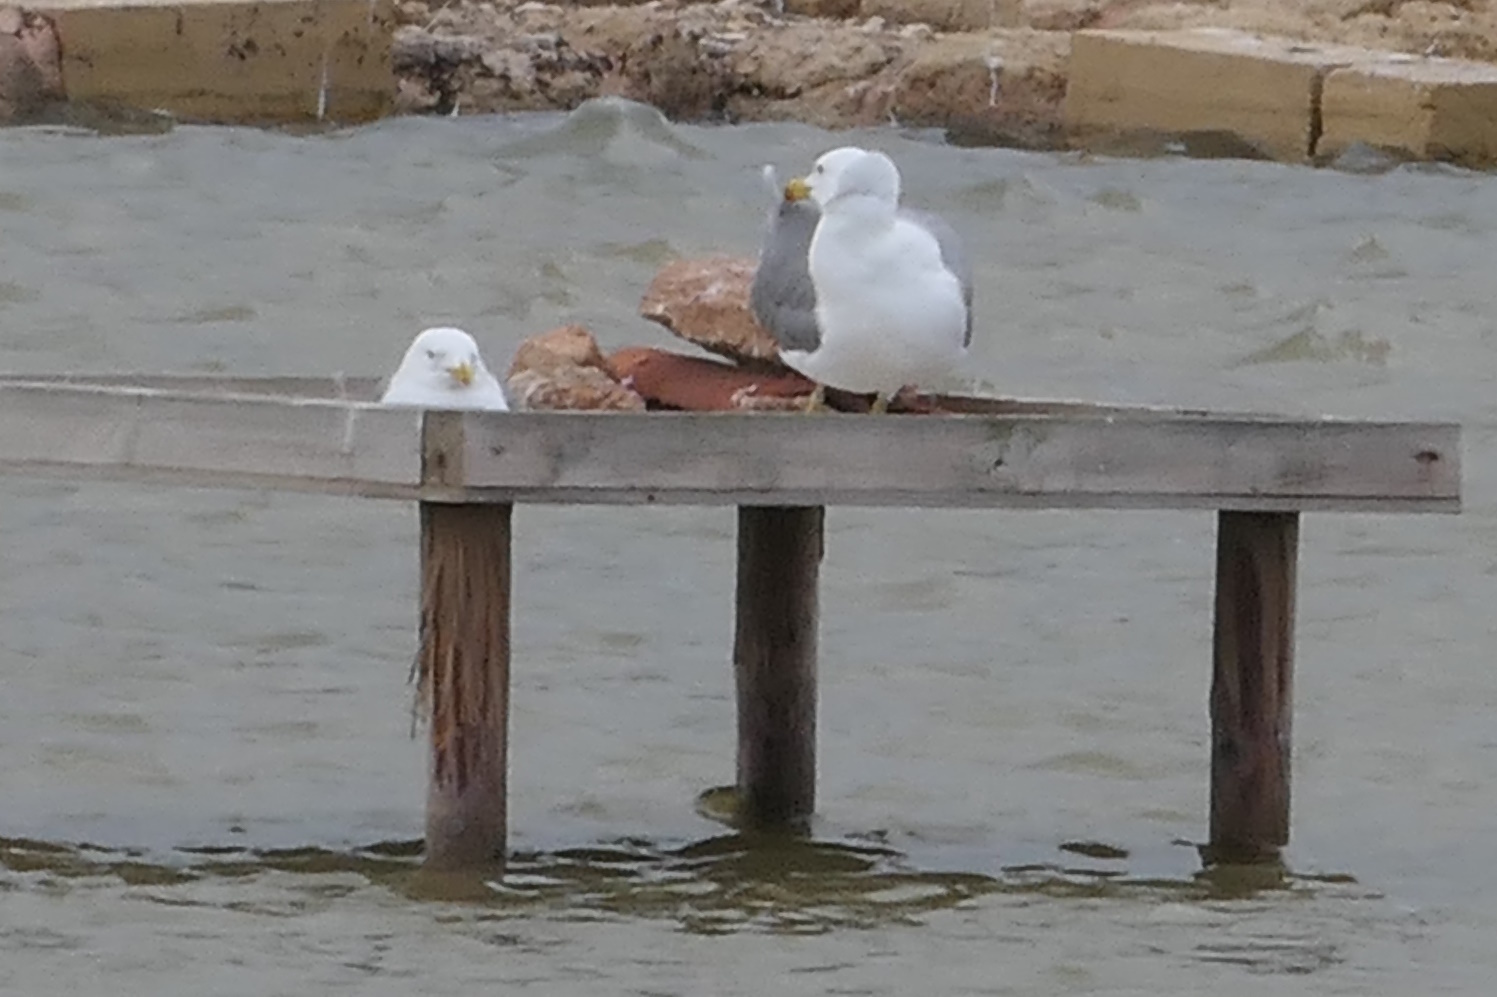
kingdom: Animalia
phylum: Chordata
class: Aves
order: Charadriiformes
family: Laridae
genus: Larus
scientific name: Larus michahellis
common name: Yellow-legged gull
